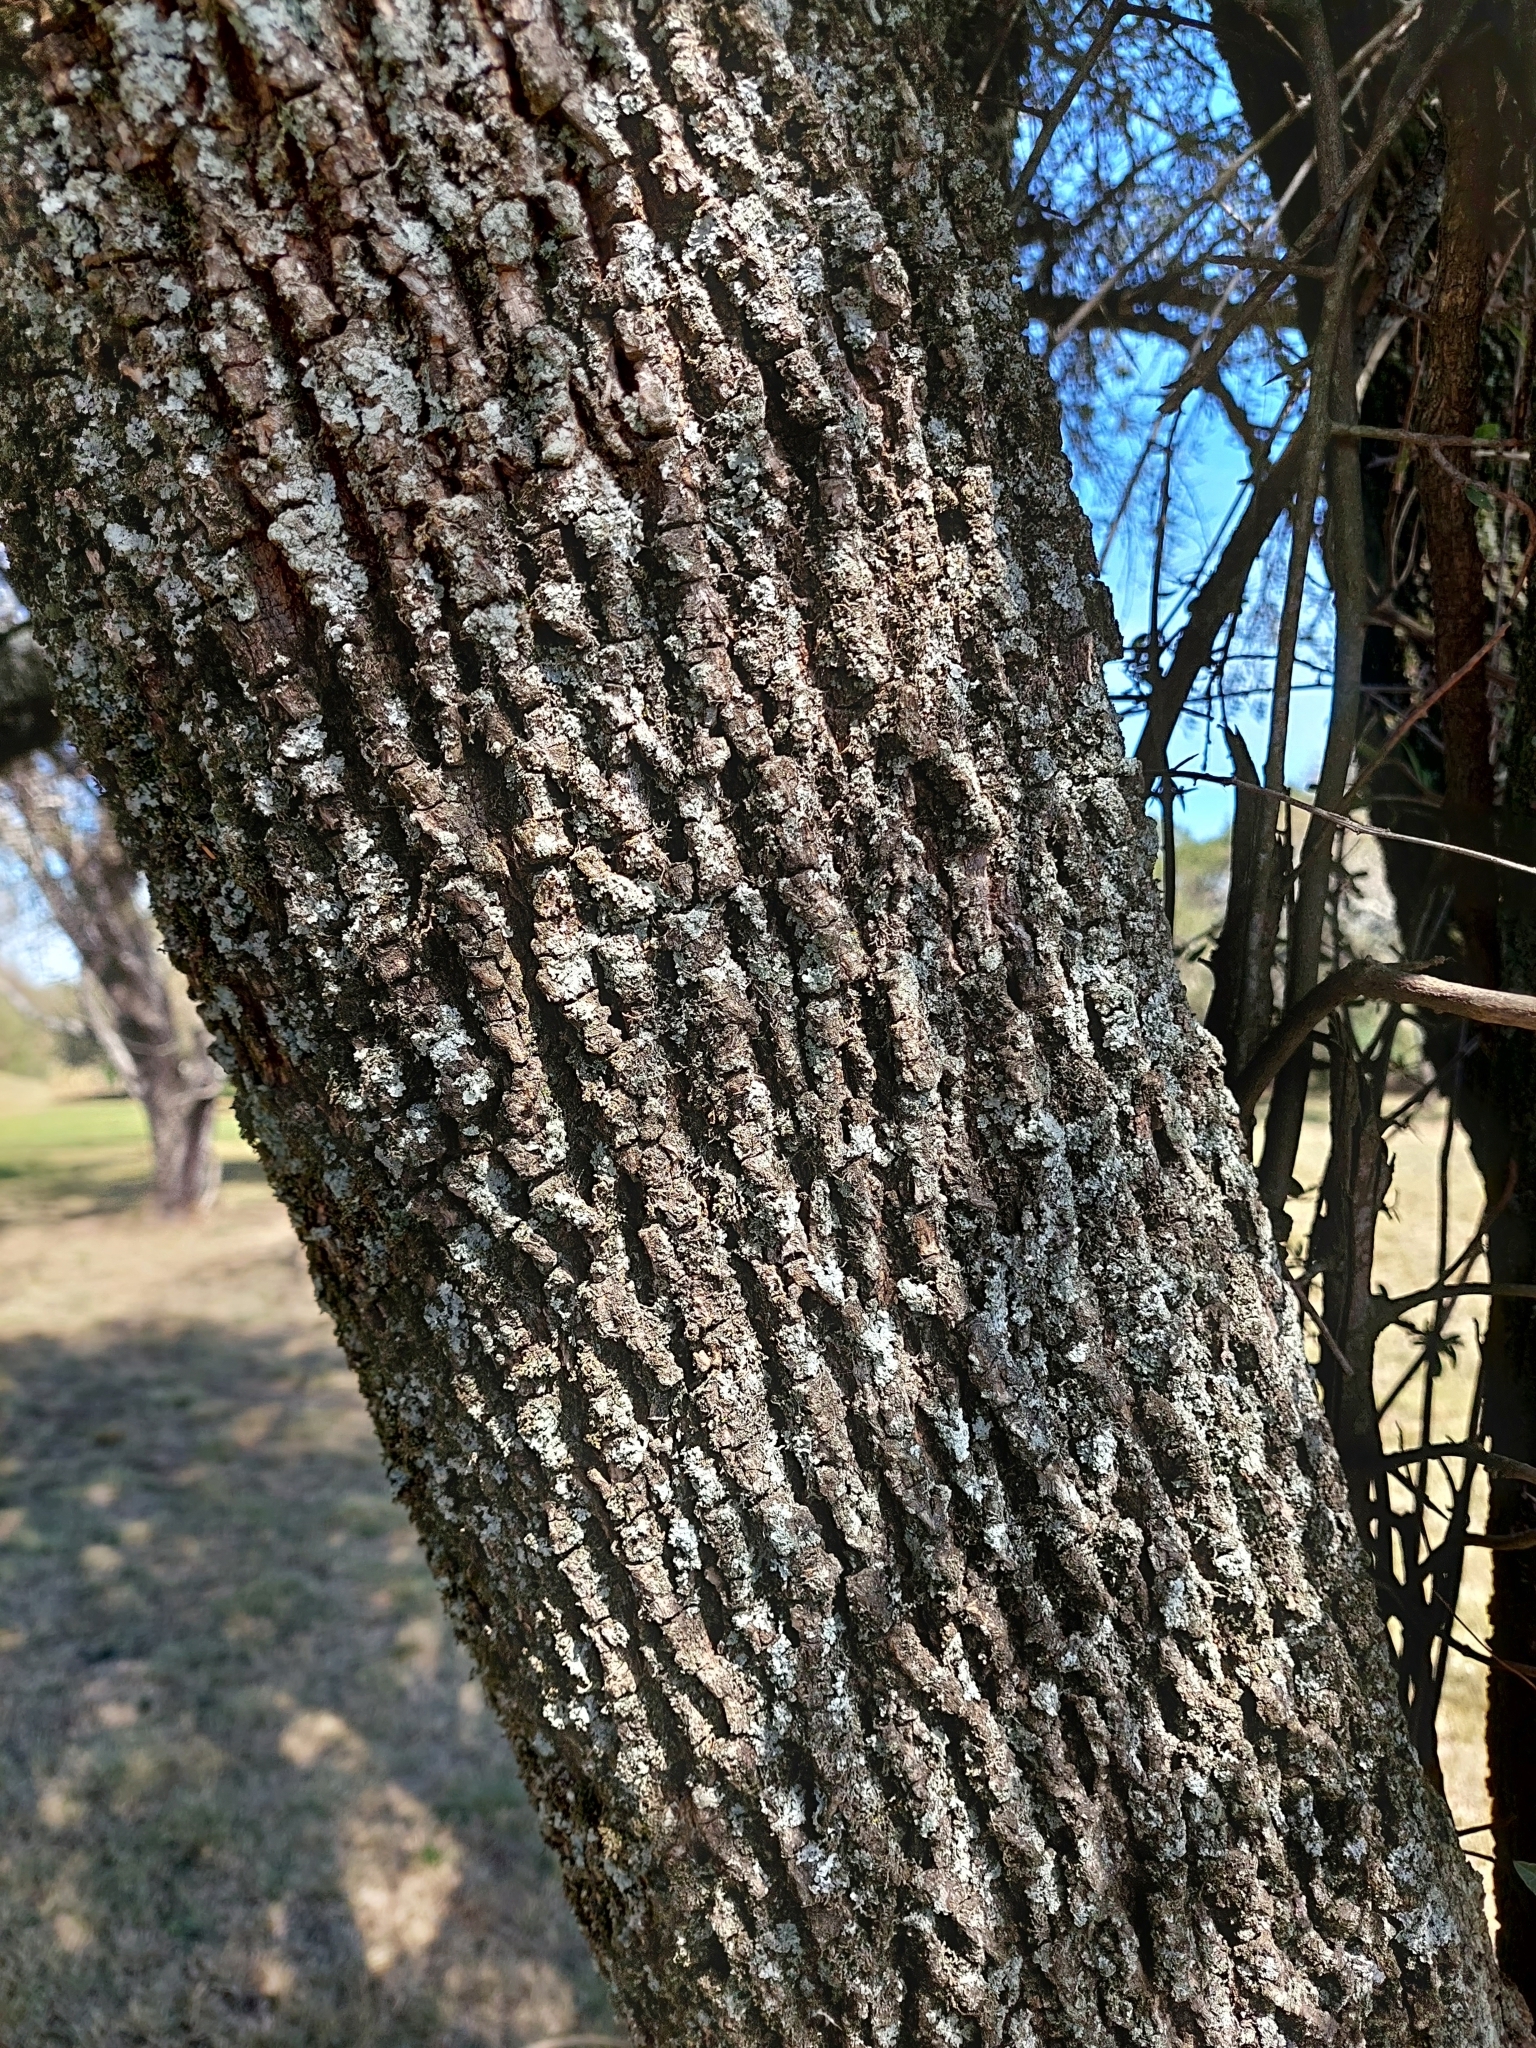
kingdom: Plantae
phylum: Tracheophyta
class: Magnoliopsida
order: Ericales
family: Sapotaceae
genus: Sideroxylon
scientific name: Sideroxylon obtusifolium
